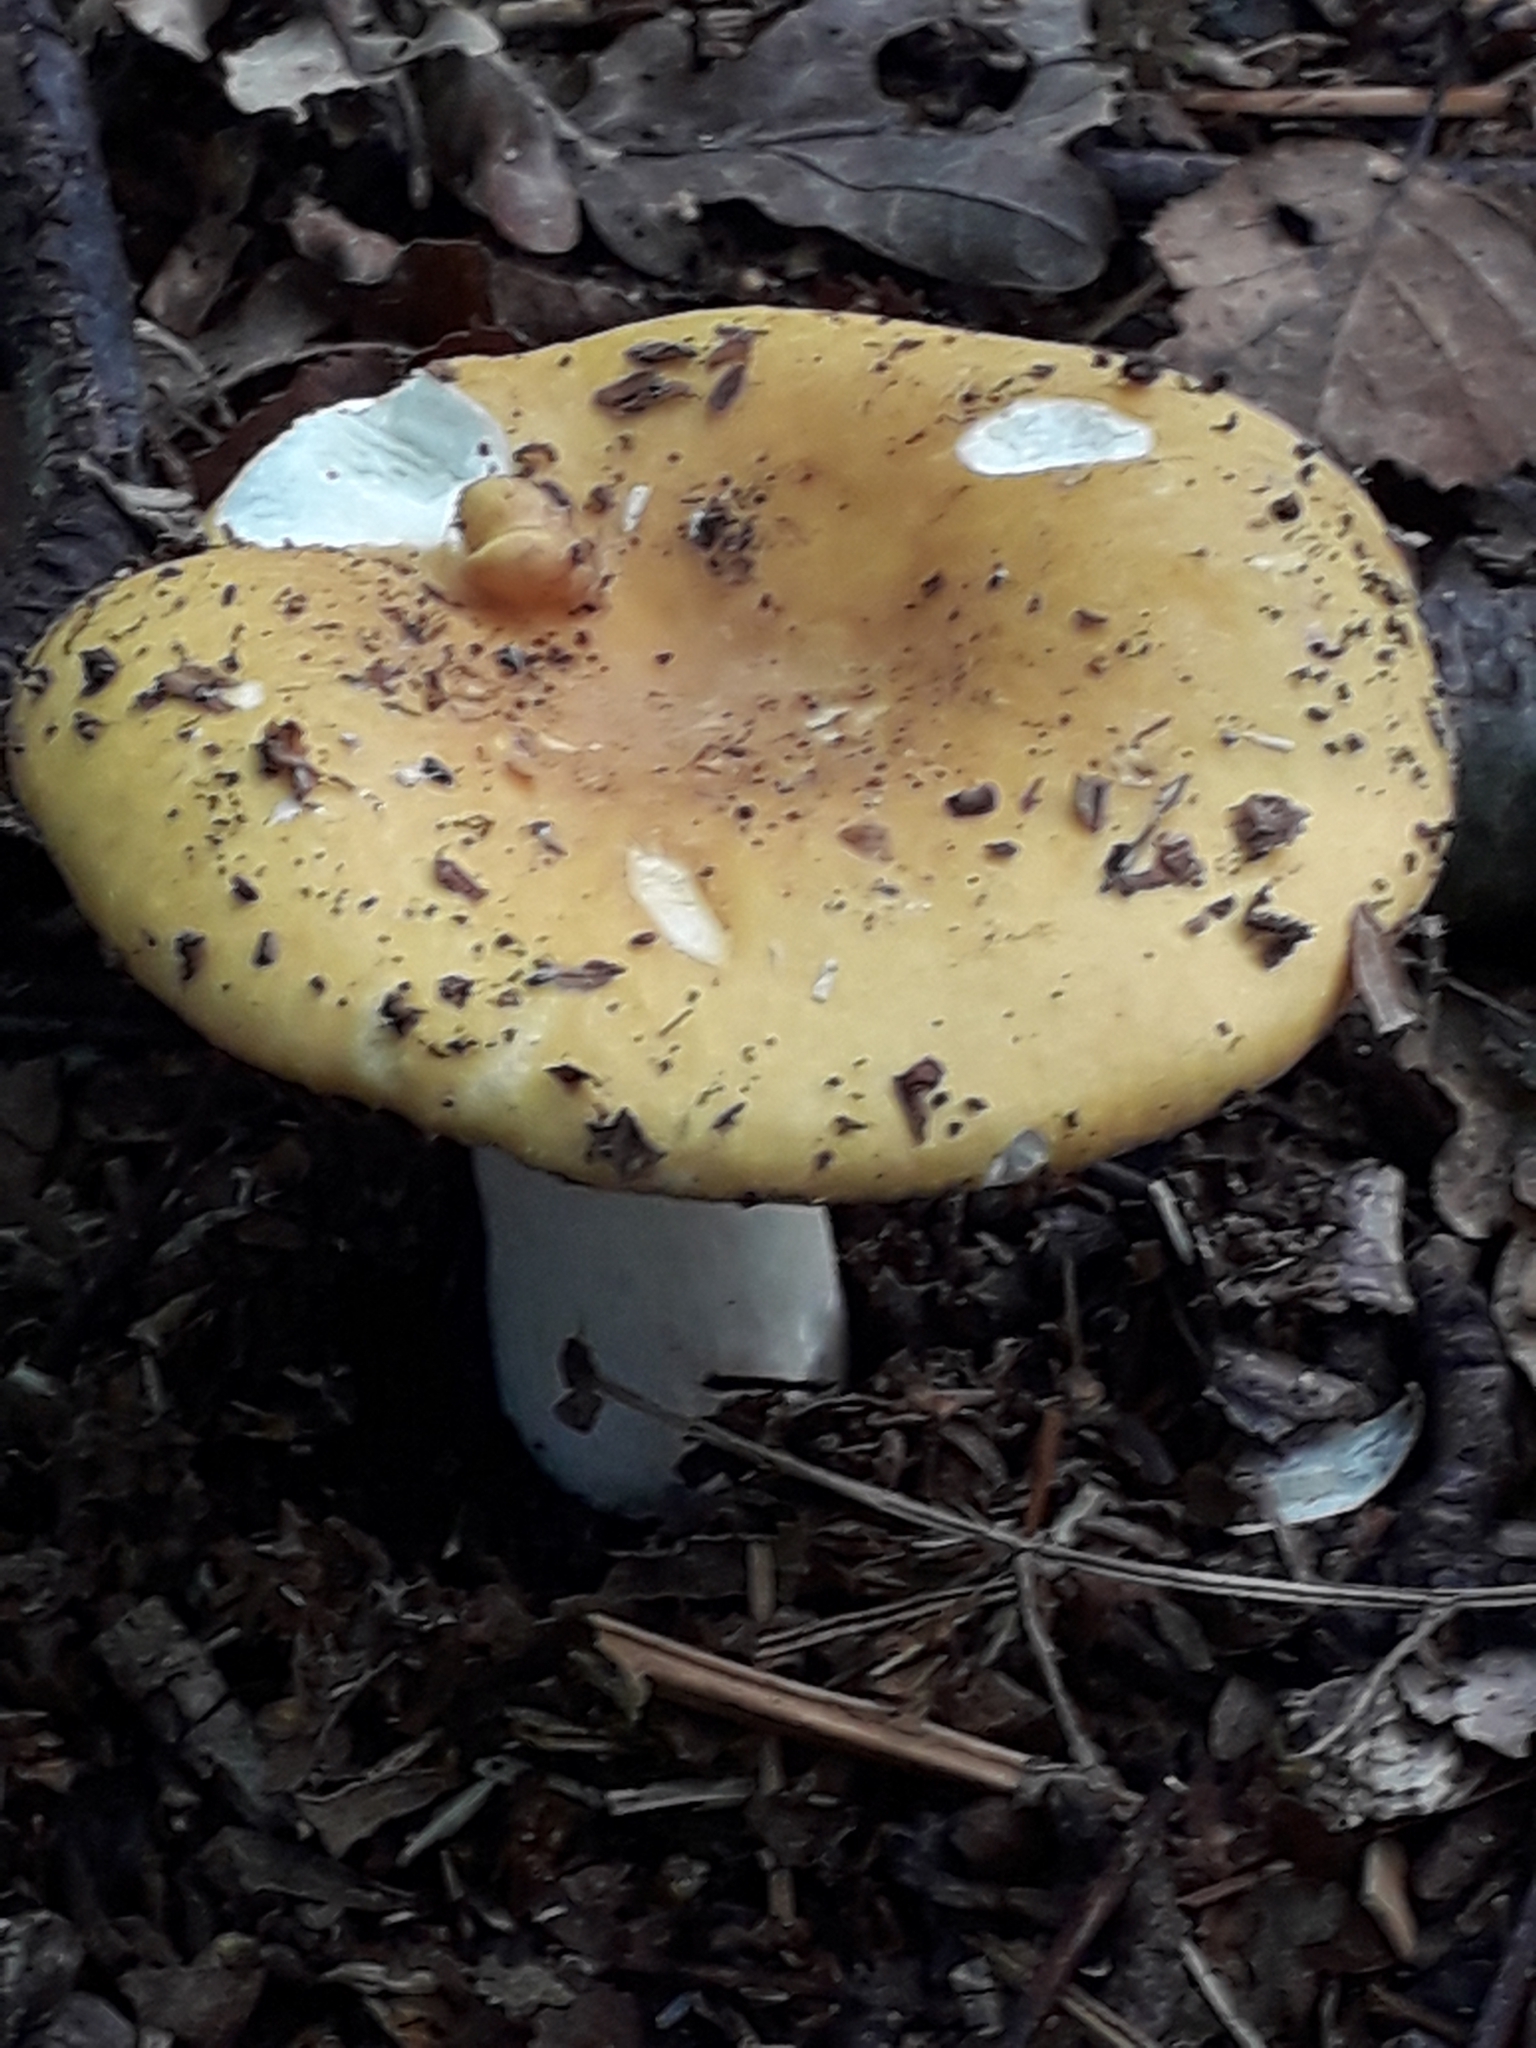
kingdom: Fungi
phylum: Basidiomycota
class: Agaricomycetes
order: Russulales
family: Russulaceae
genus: Russula
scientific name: Russula ochroleuca
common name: Common yellow russula
